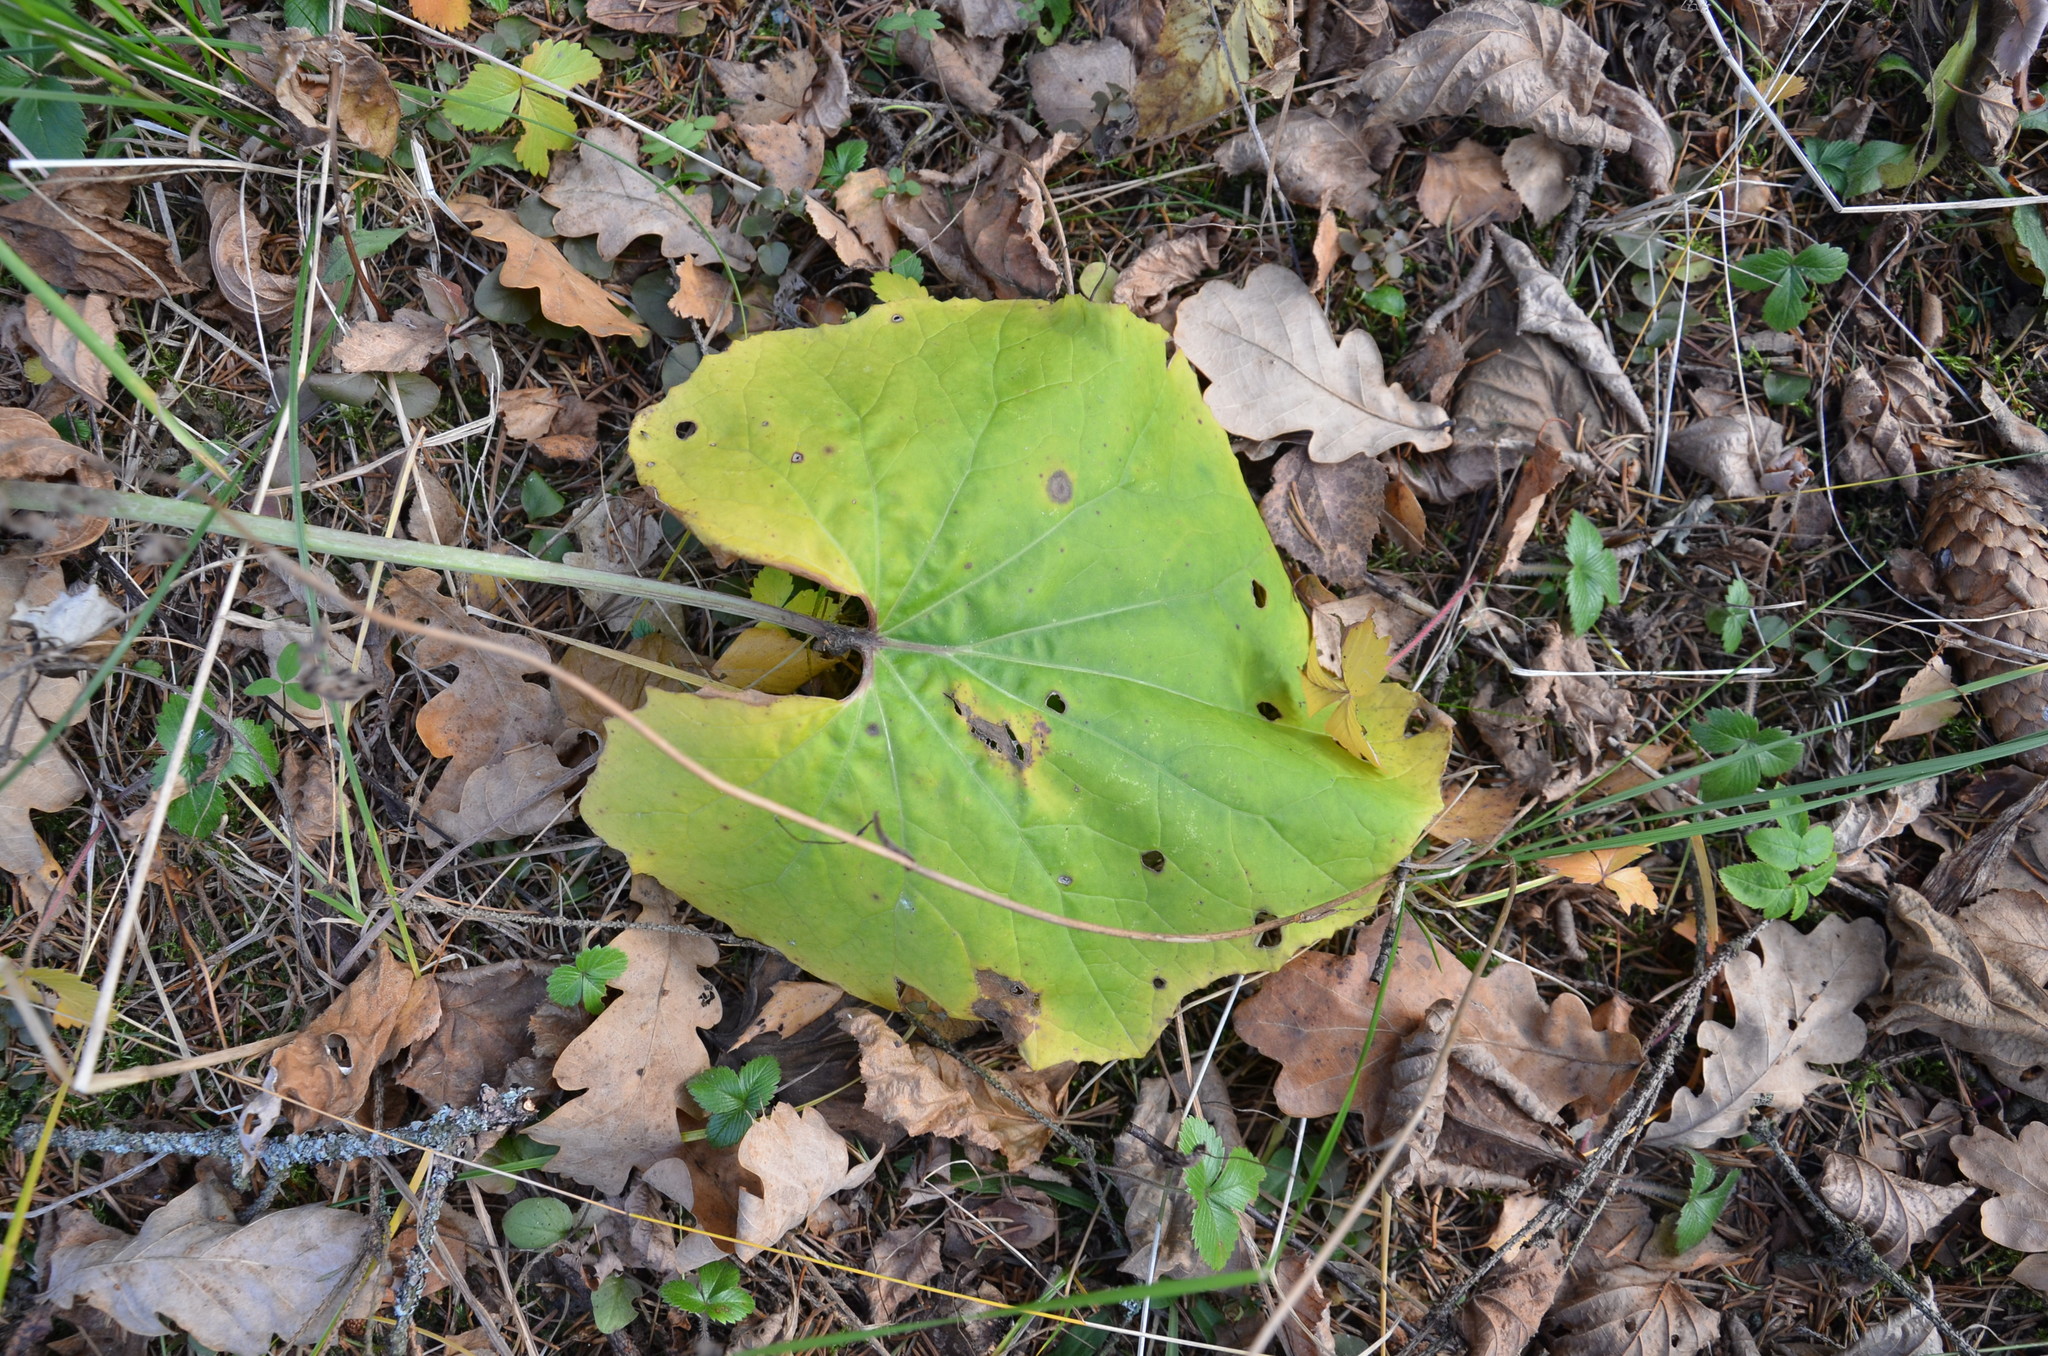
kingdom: Plantae
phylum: Tracheophyta
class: Magnoliopsida
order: Asterales
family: Asteraceae
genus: Tussilago
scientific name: Tussilago farfara
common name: Coltsfoot
